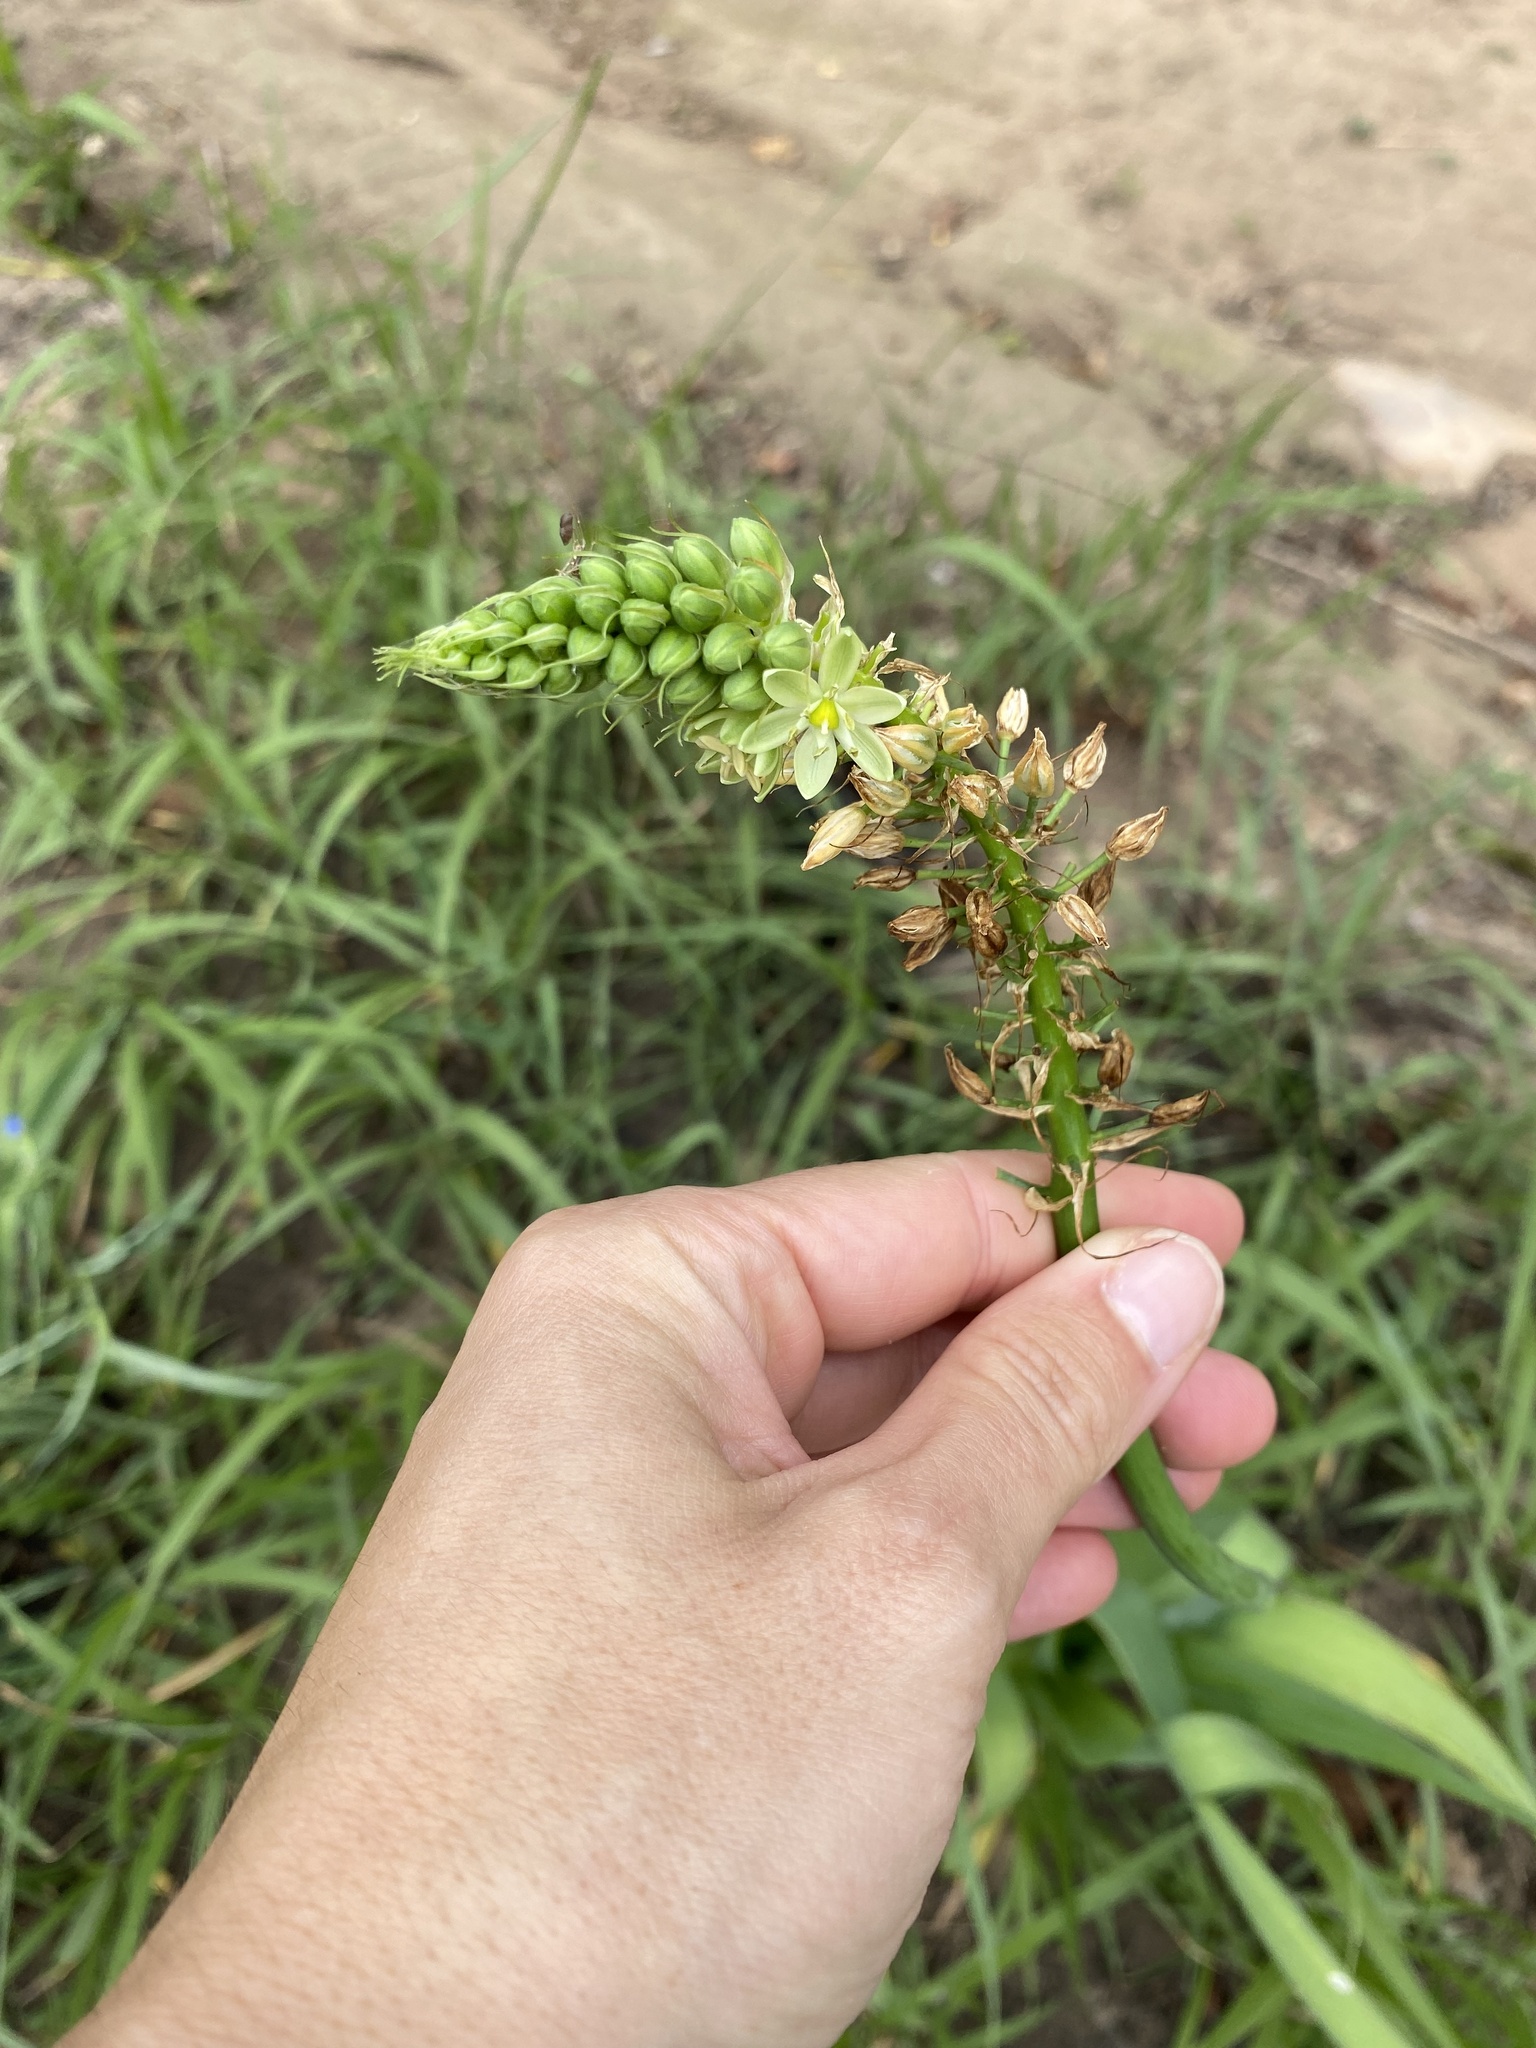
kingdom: Plantae
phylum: Tracheophyta
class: Liliopsida
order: Asparagales
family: Asparagaceae
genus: Albuca
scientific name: Albuca virens
